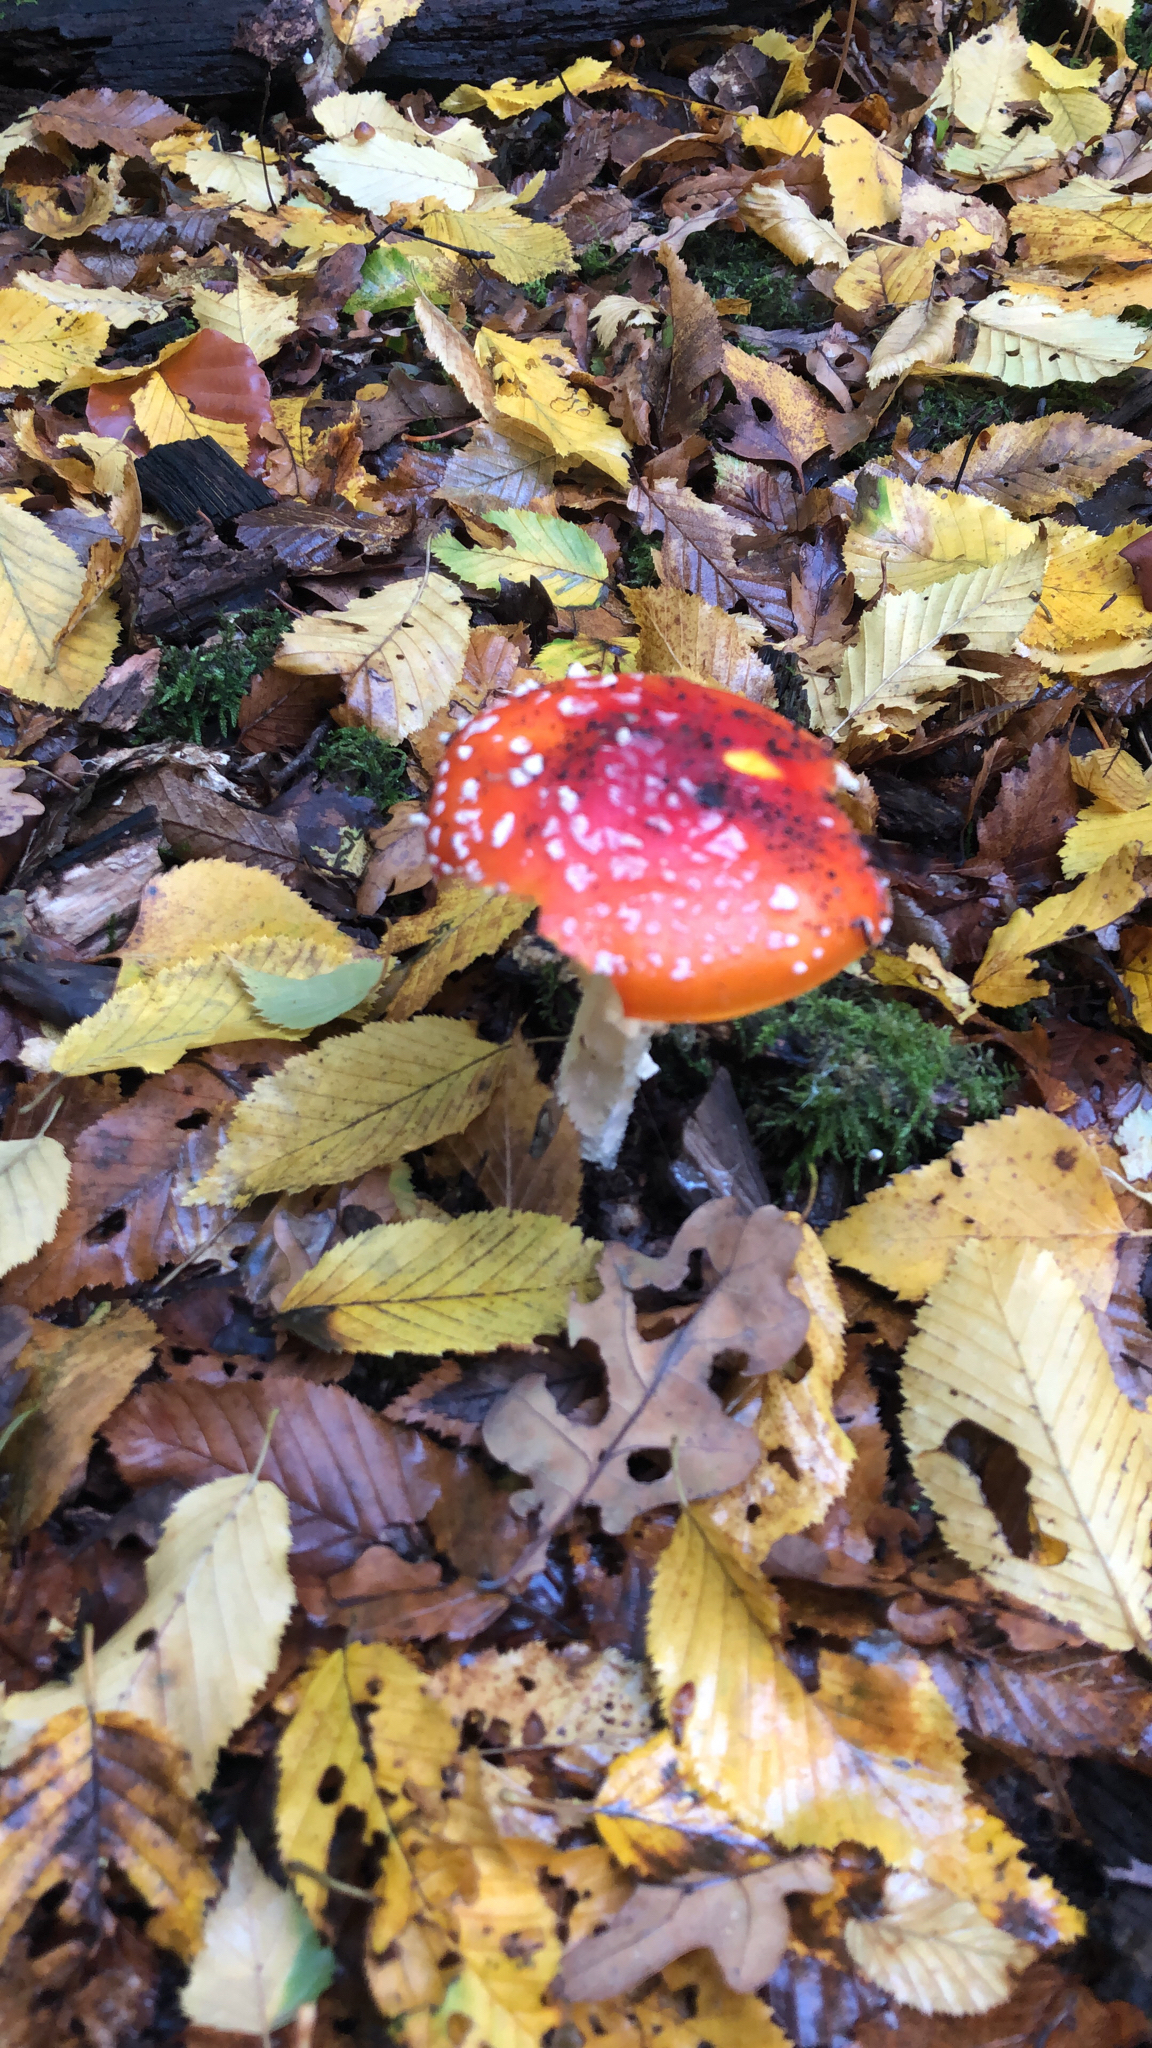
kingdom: Fungi
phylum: Basidiomycota
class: Agaricomycetes
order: Agaricales
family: Amanitaceae
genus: Amanita
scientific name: Amanita muscaria
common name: Fly agaric
